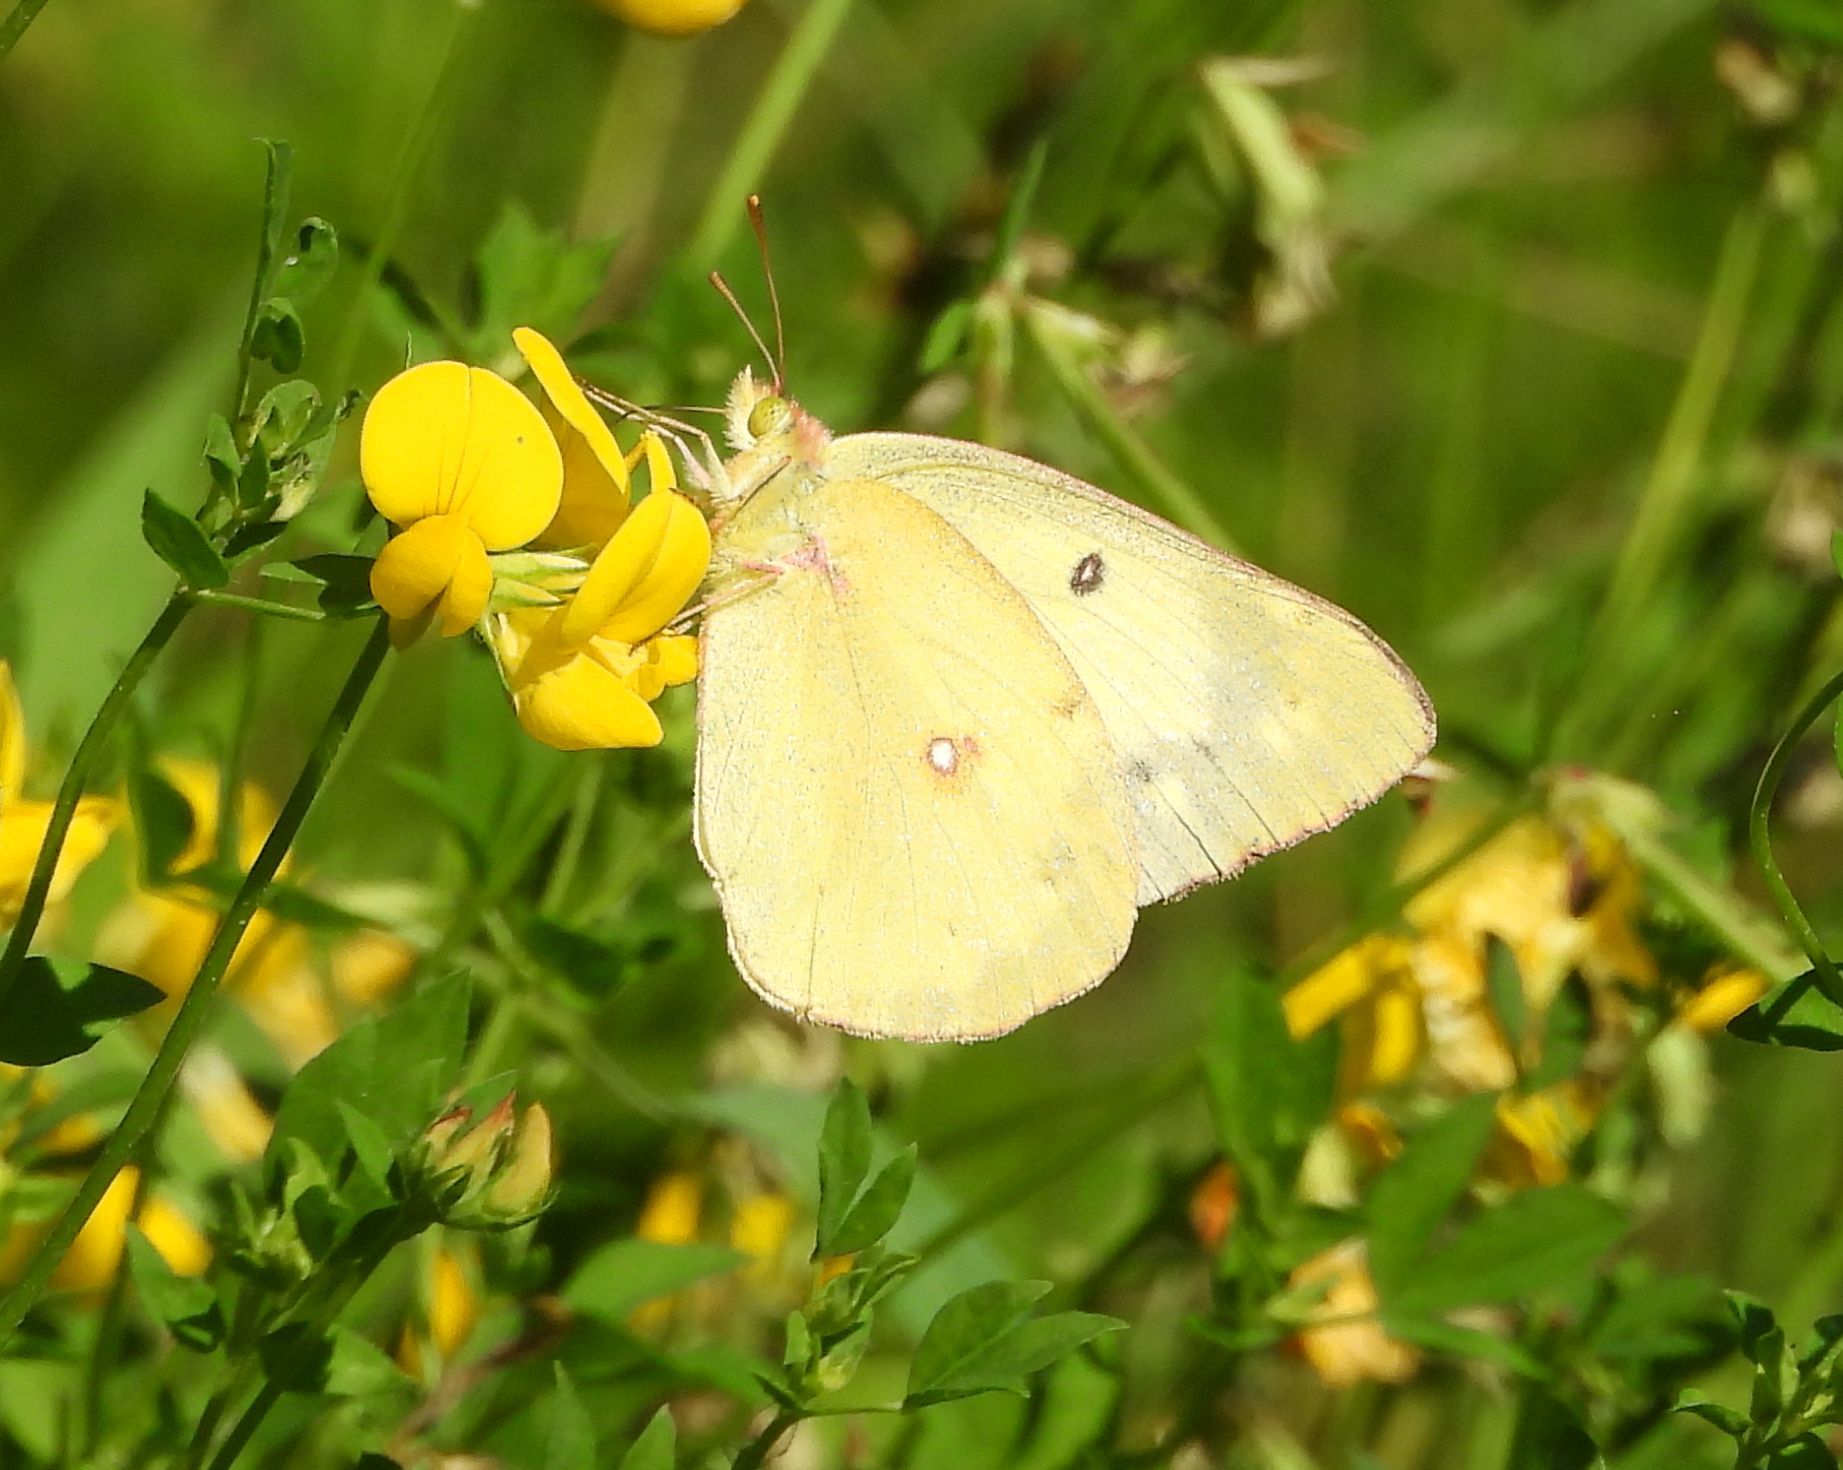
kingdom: Animalia
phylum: Arthropoda
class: Insecta
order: Lepidoptera
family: Pieridae
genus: Colias
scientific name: Colias philodice
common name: Clouded sulphur
